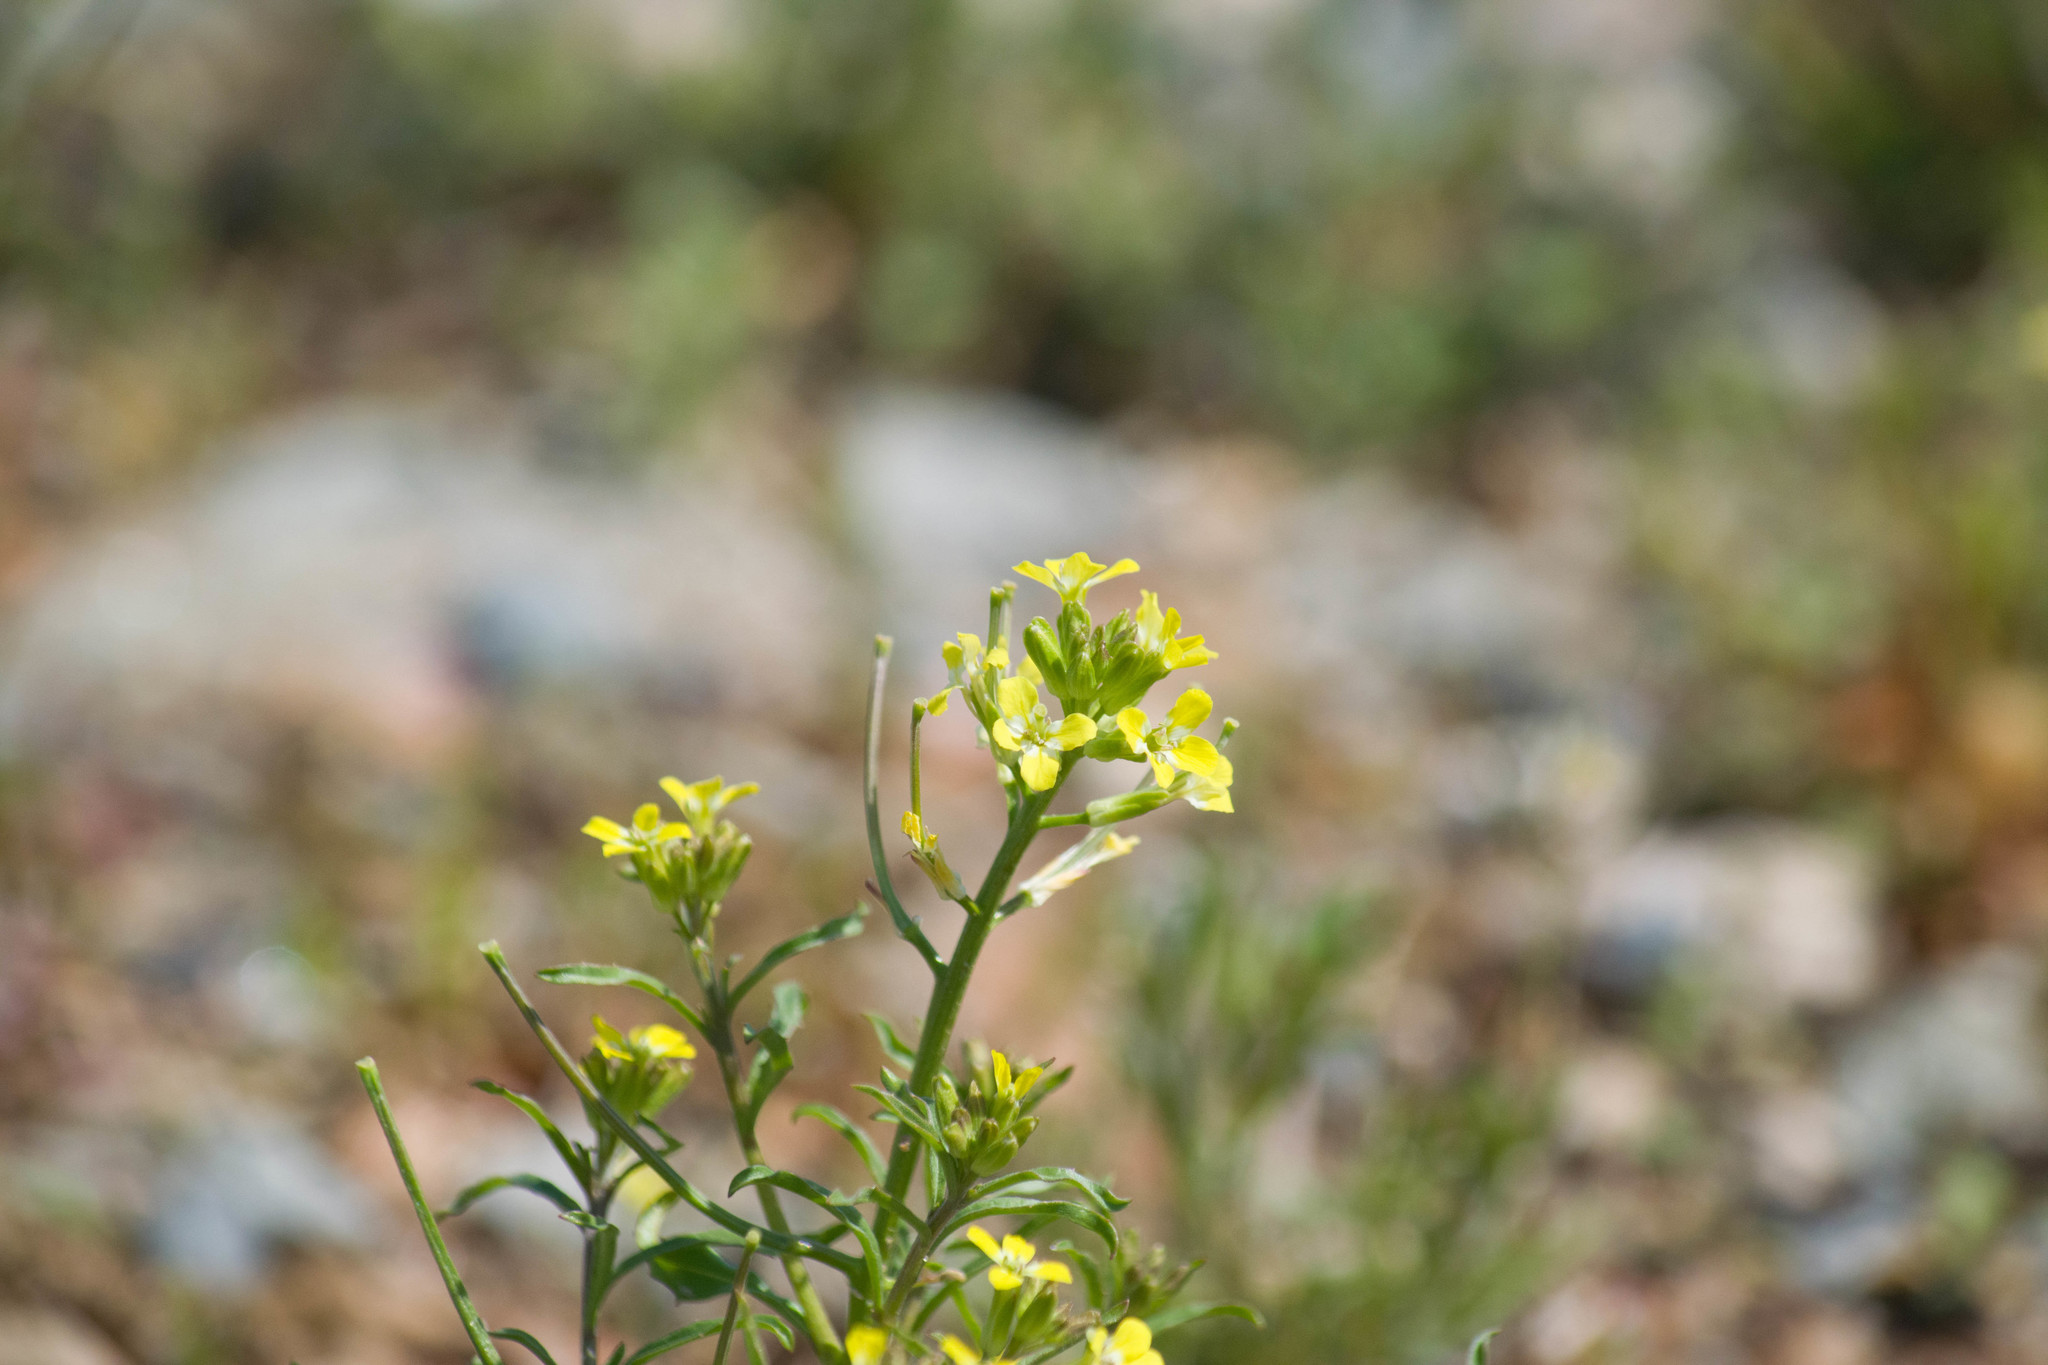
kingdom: Plantae
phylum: Tracheophyta
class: Magnoliopsida
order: Brassicales
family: Brassicaceae
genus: Erysimum
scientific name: Erysimum repandum
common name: Spreading wallflower
